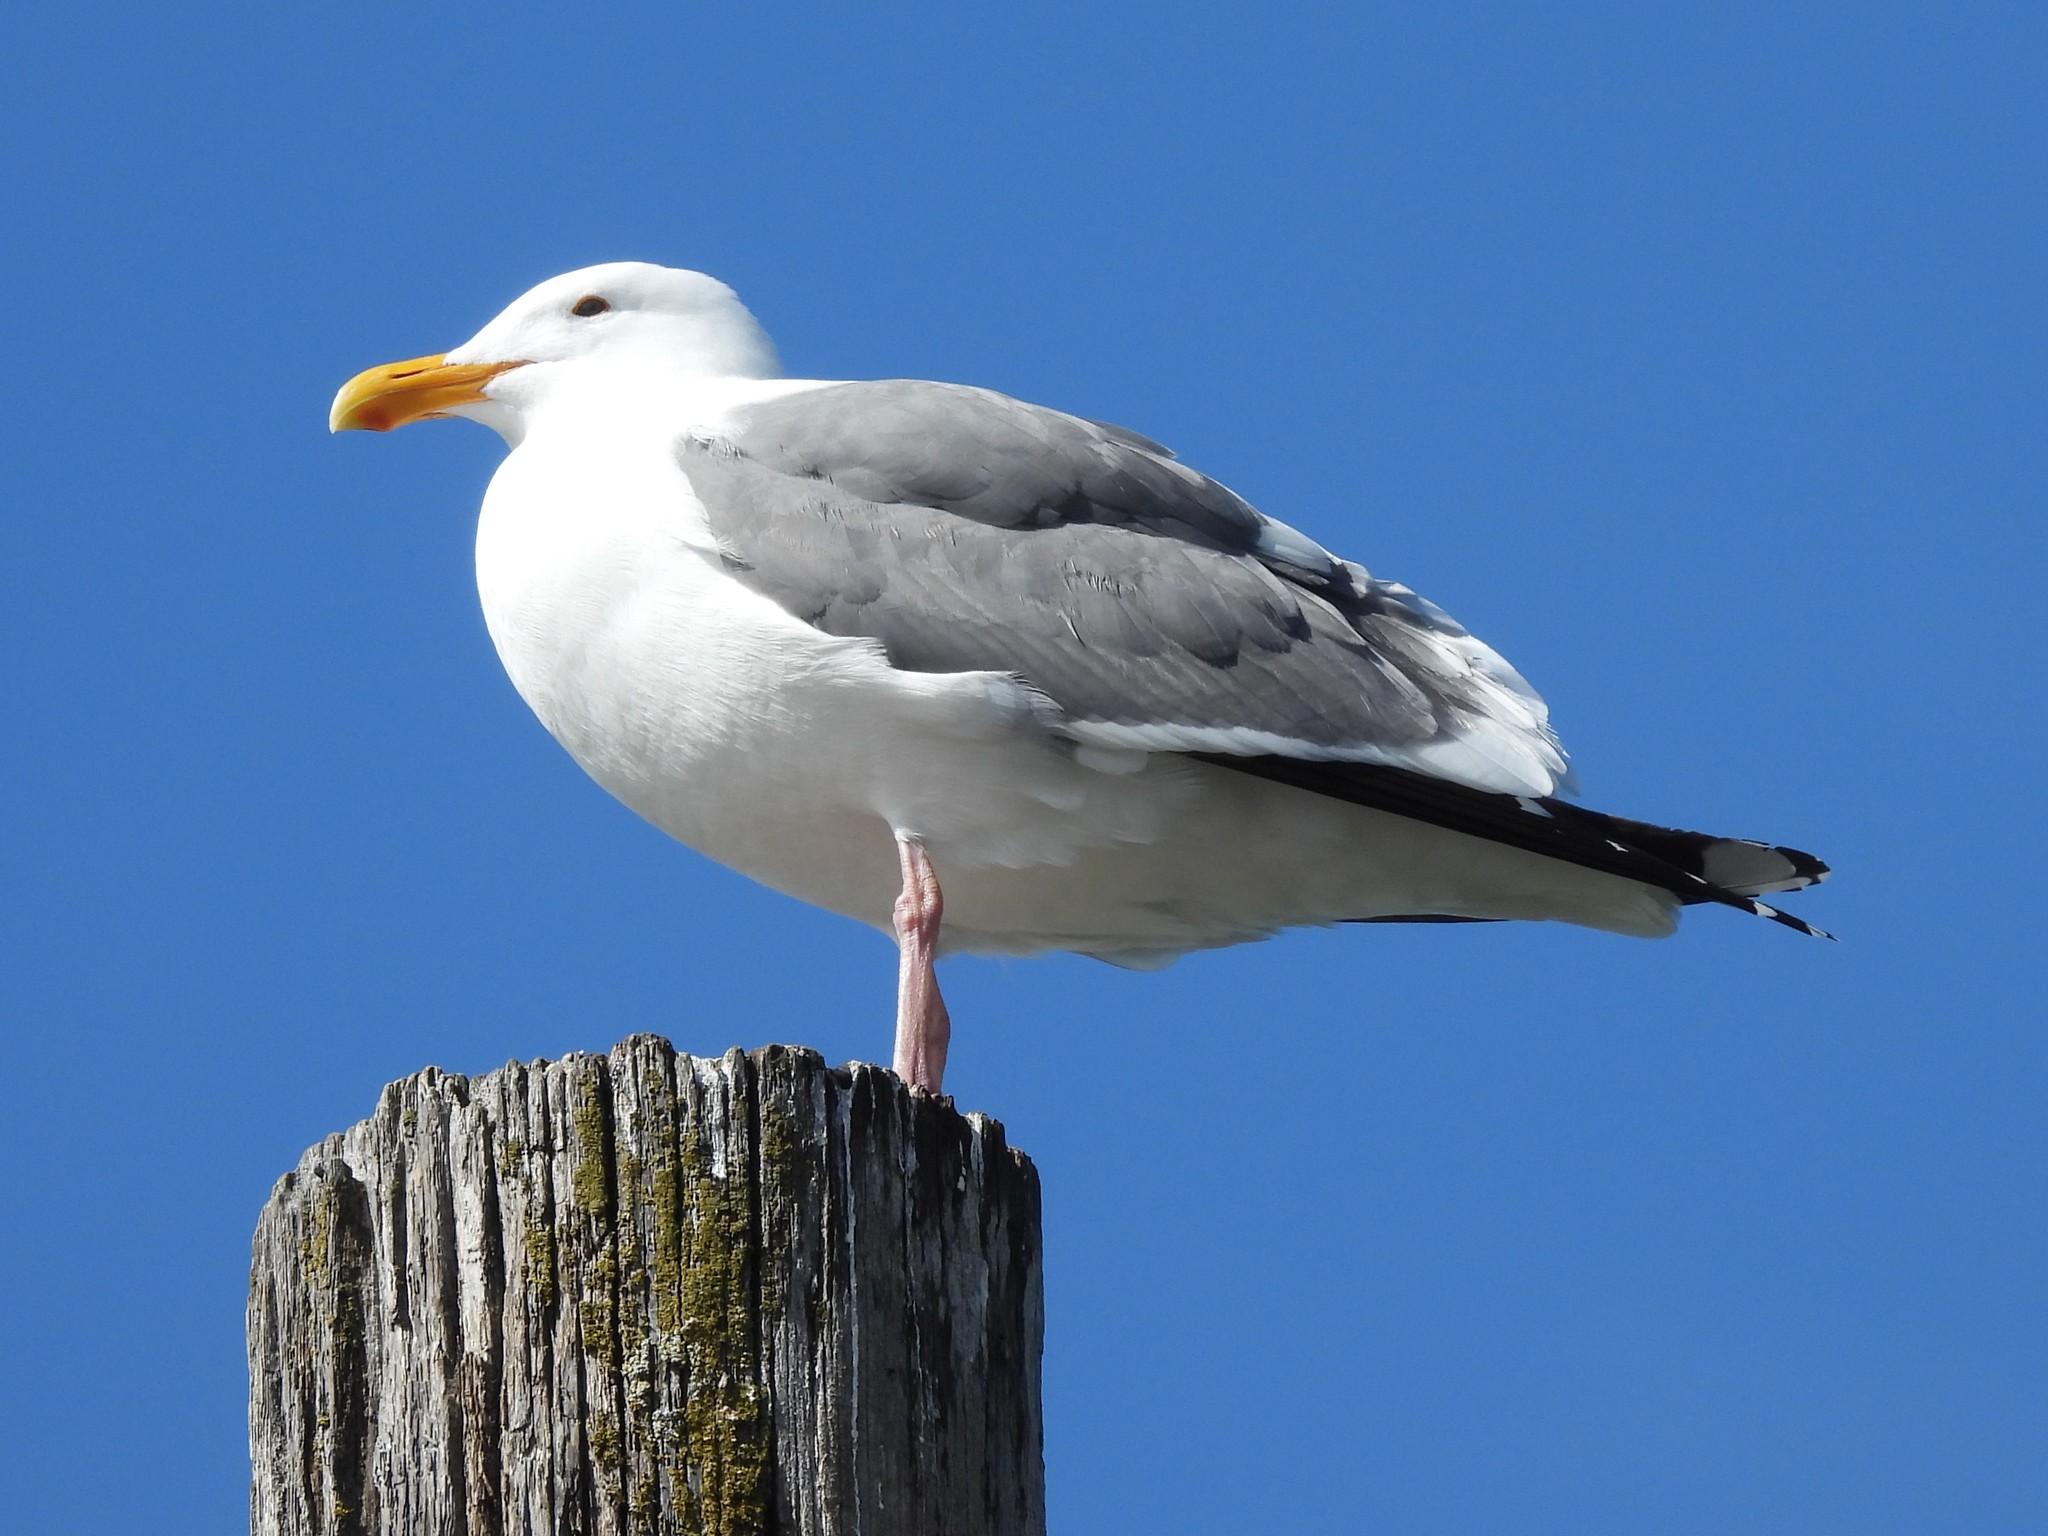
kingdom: Animalia
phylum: Chordata
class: Aves
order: Charadriiformes
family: Laridae
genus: Larus
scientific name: Larus occidentalis
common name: Western gull
